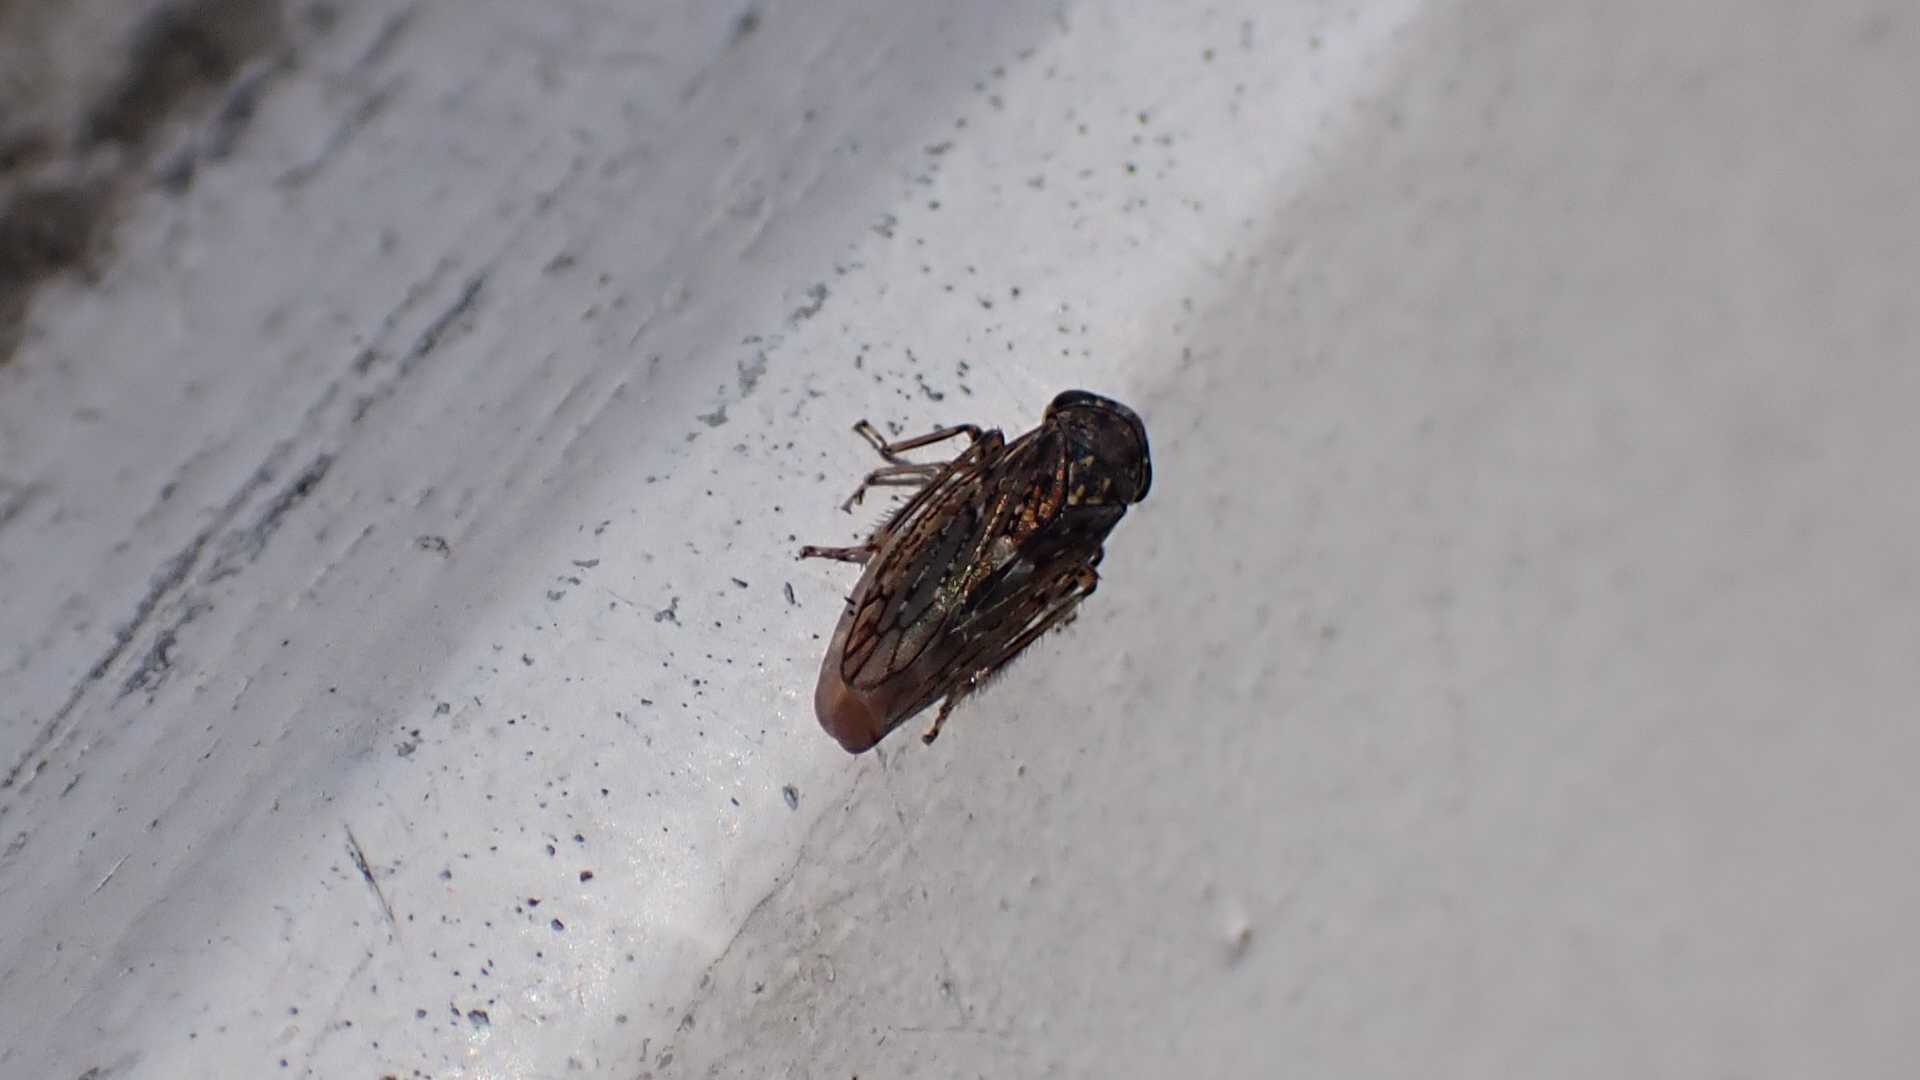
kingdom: Animalia
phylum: Arthropoda
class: Insecta
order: Hemiptera
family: Cicadellidae
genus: Acericerus
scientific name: Acericerus
